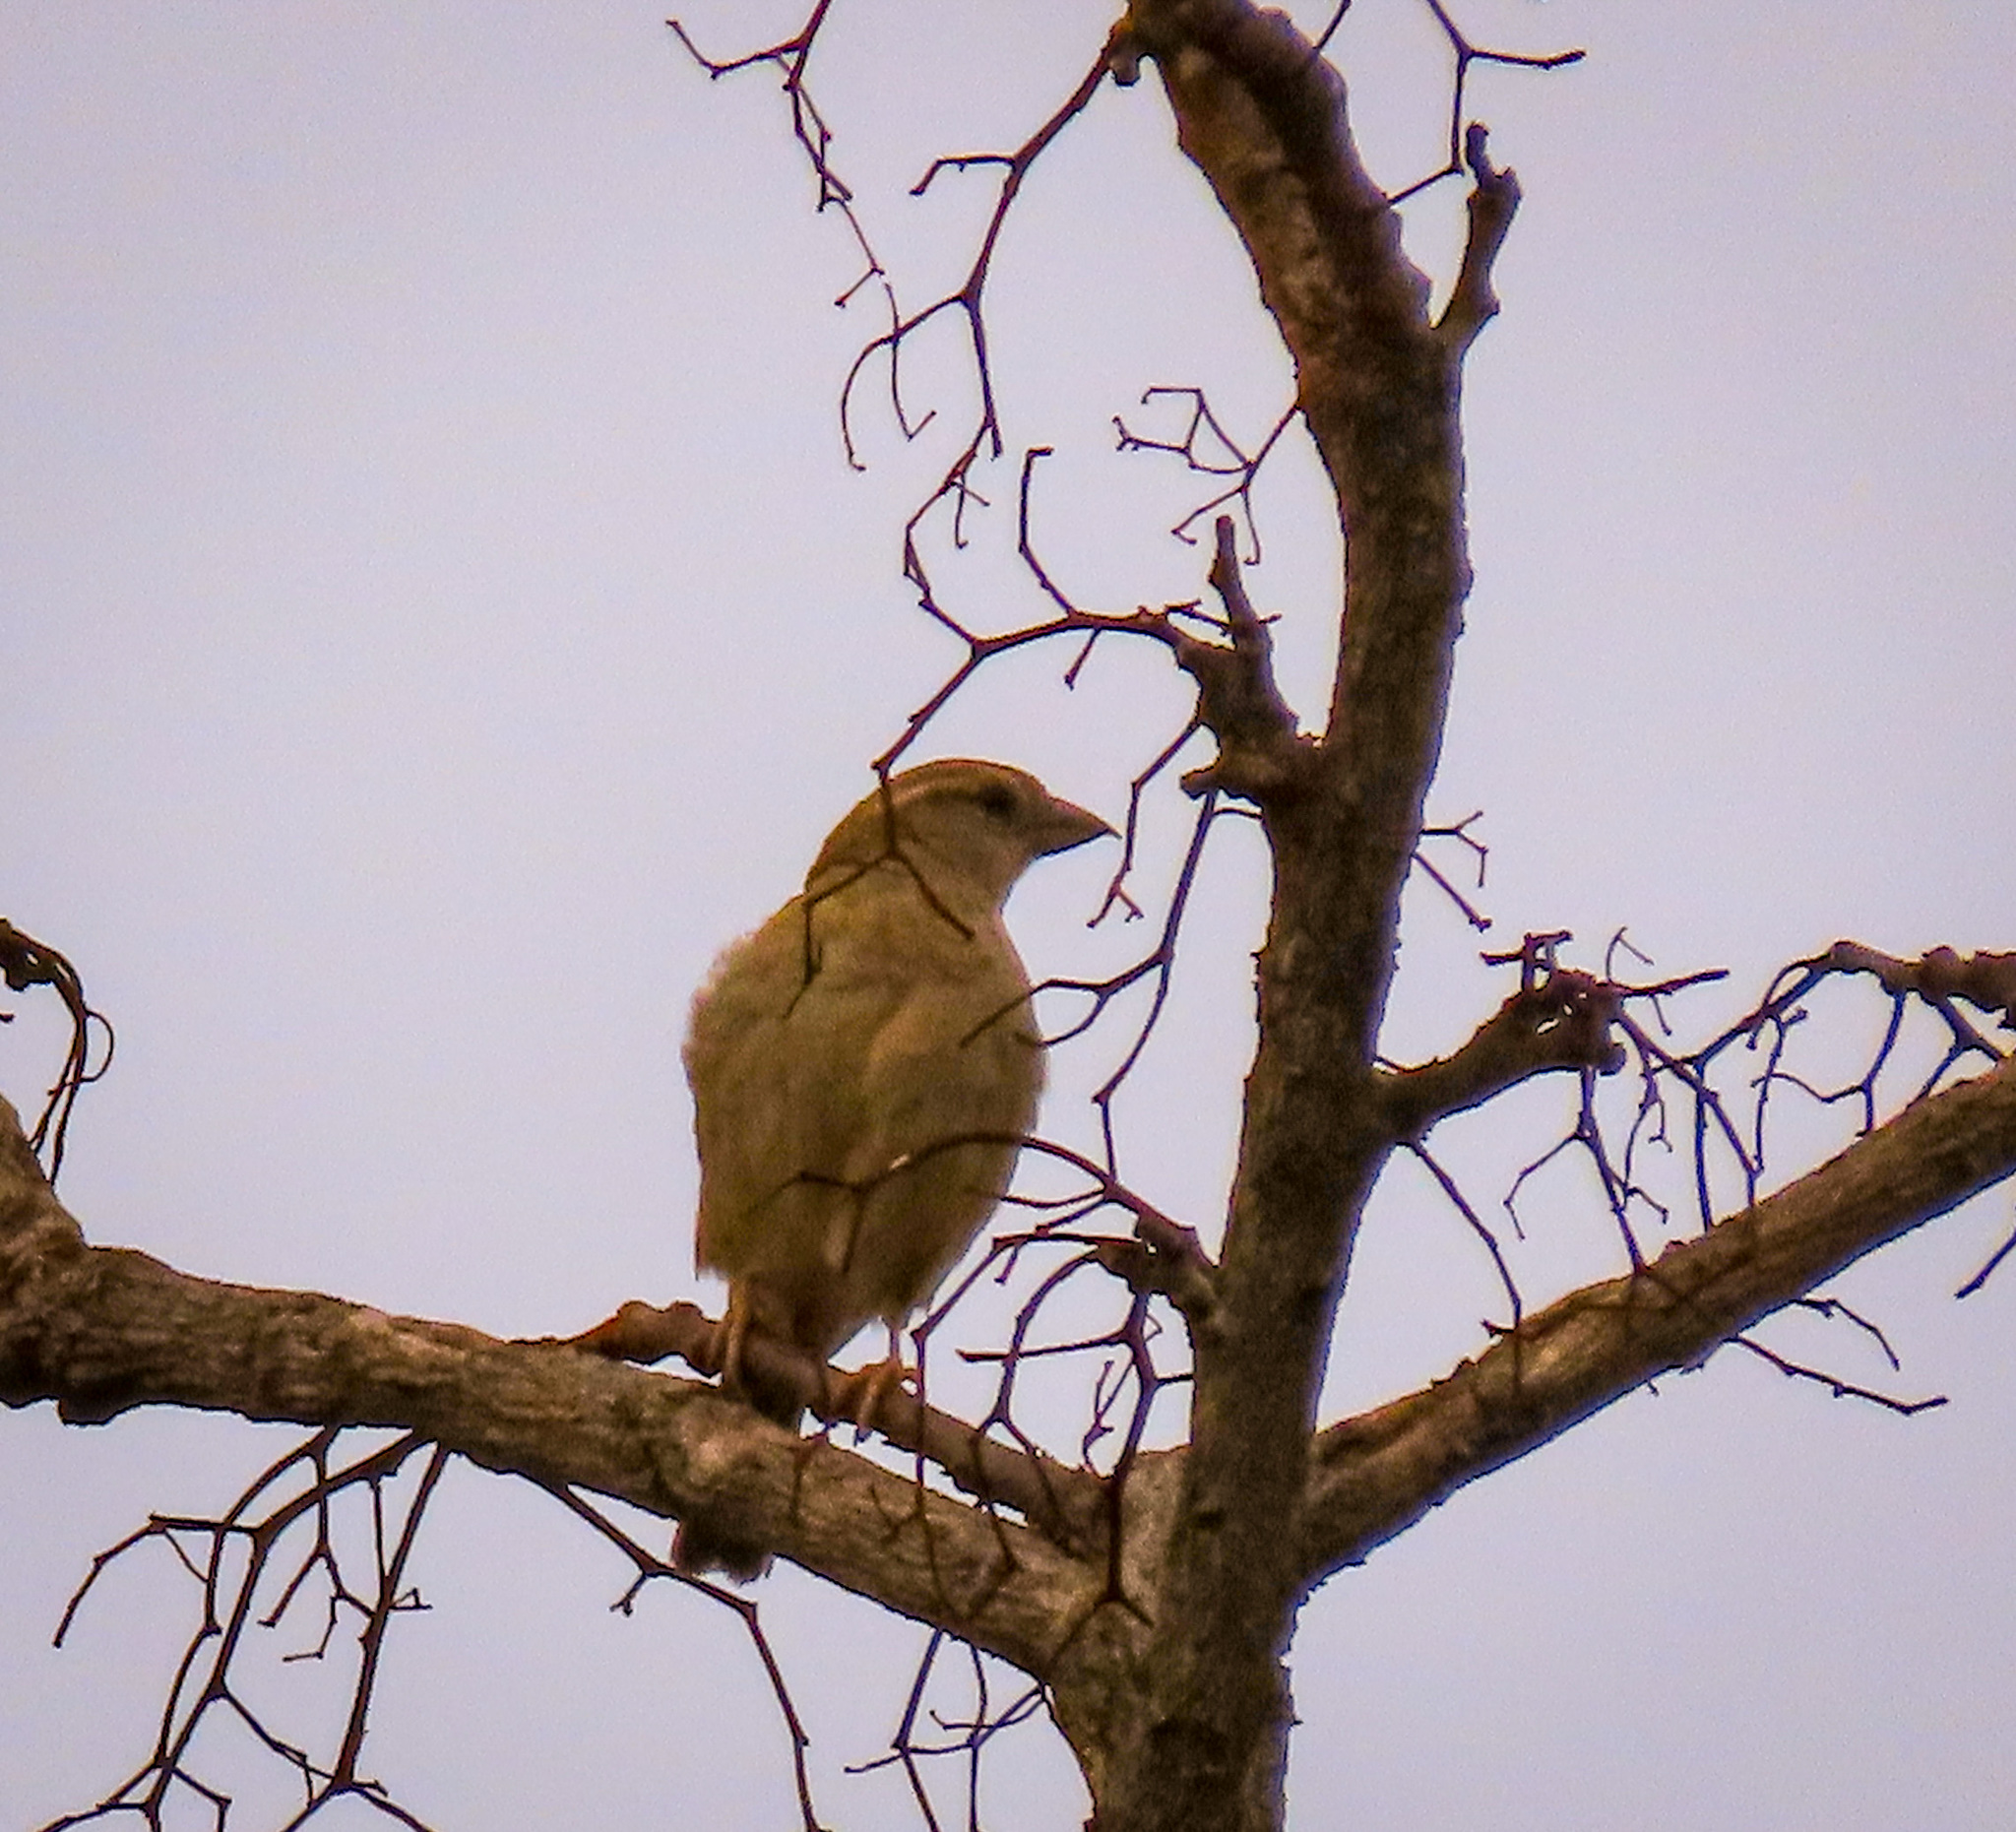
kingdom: Animalia
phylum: Chordata
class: Aves
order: Passeriformes
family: Passeridae
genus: Passer
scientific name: Passer domesticus
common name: House sparrow
